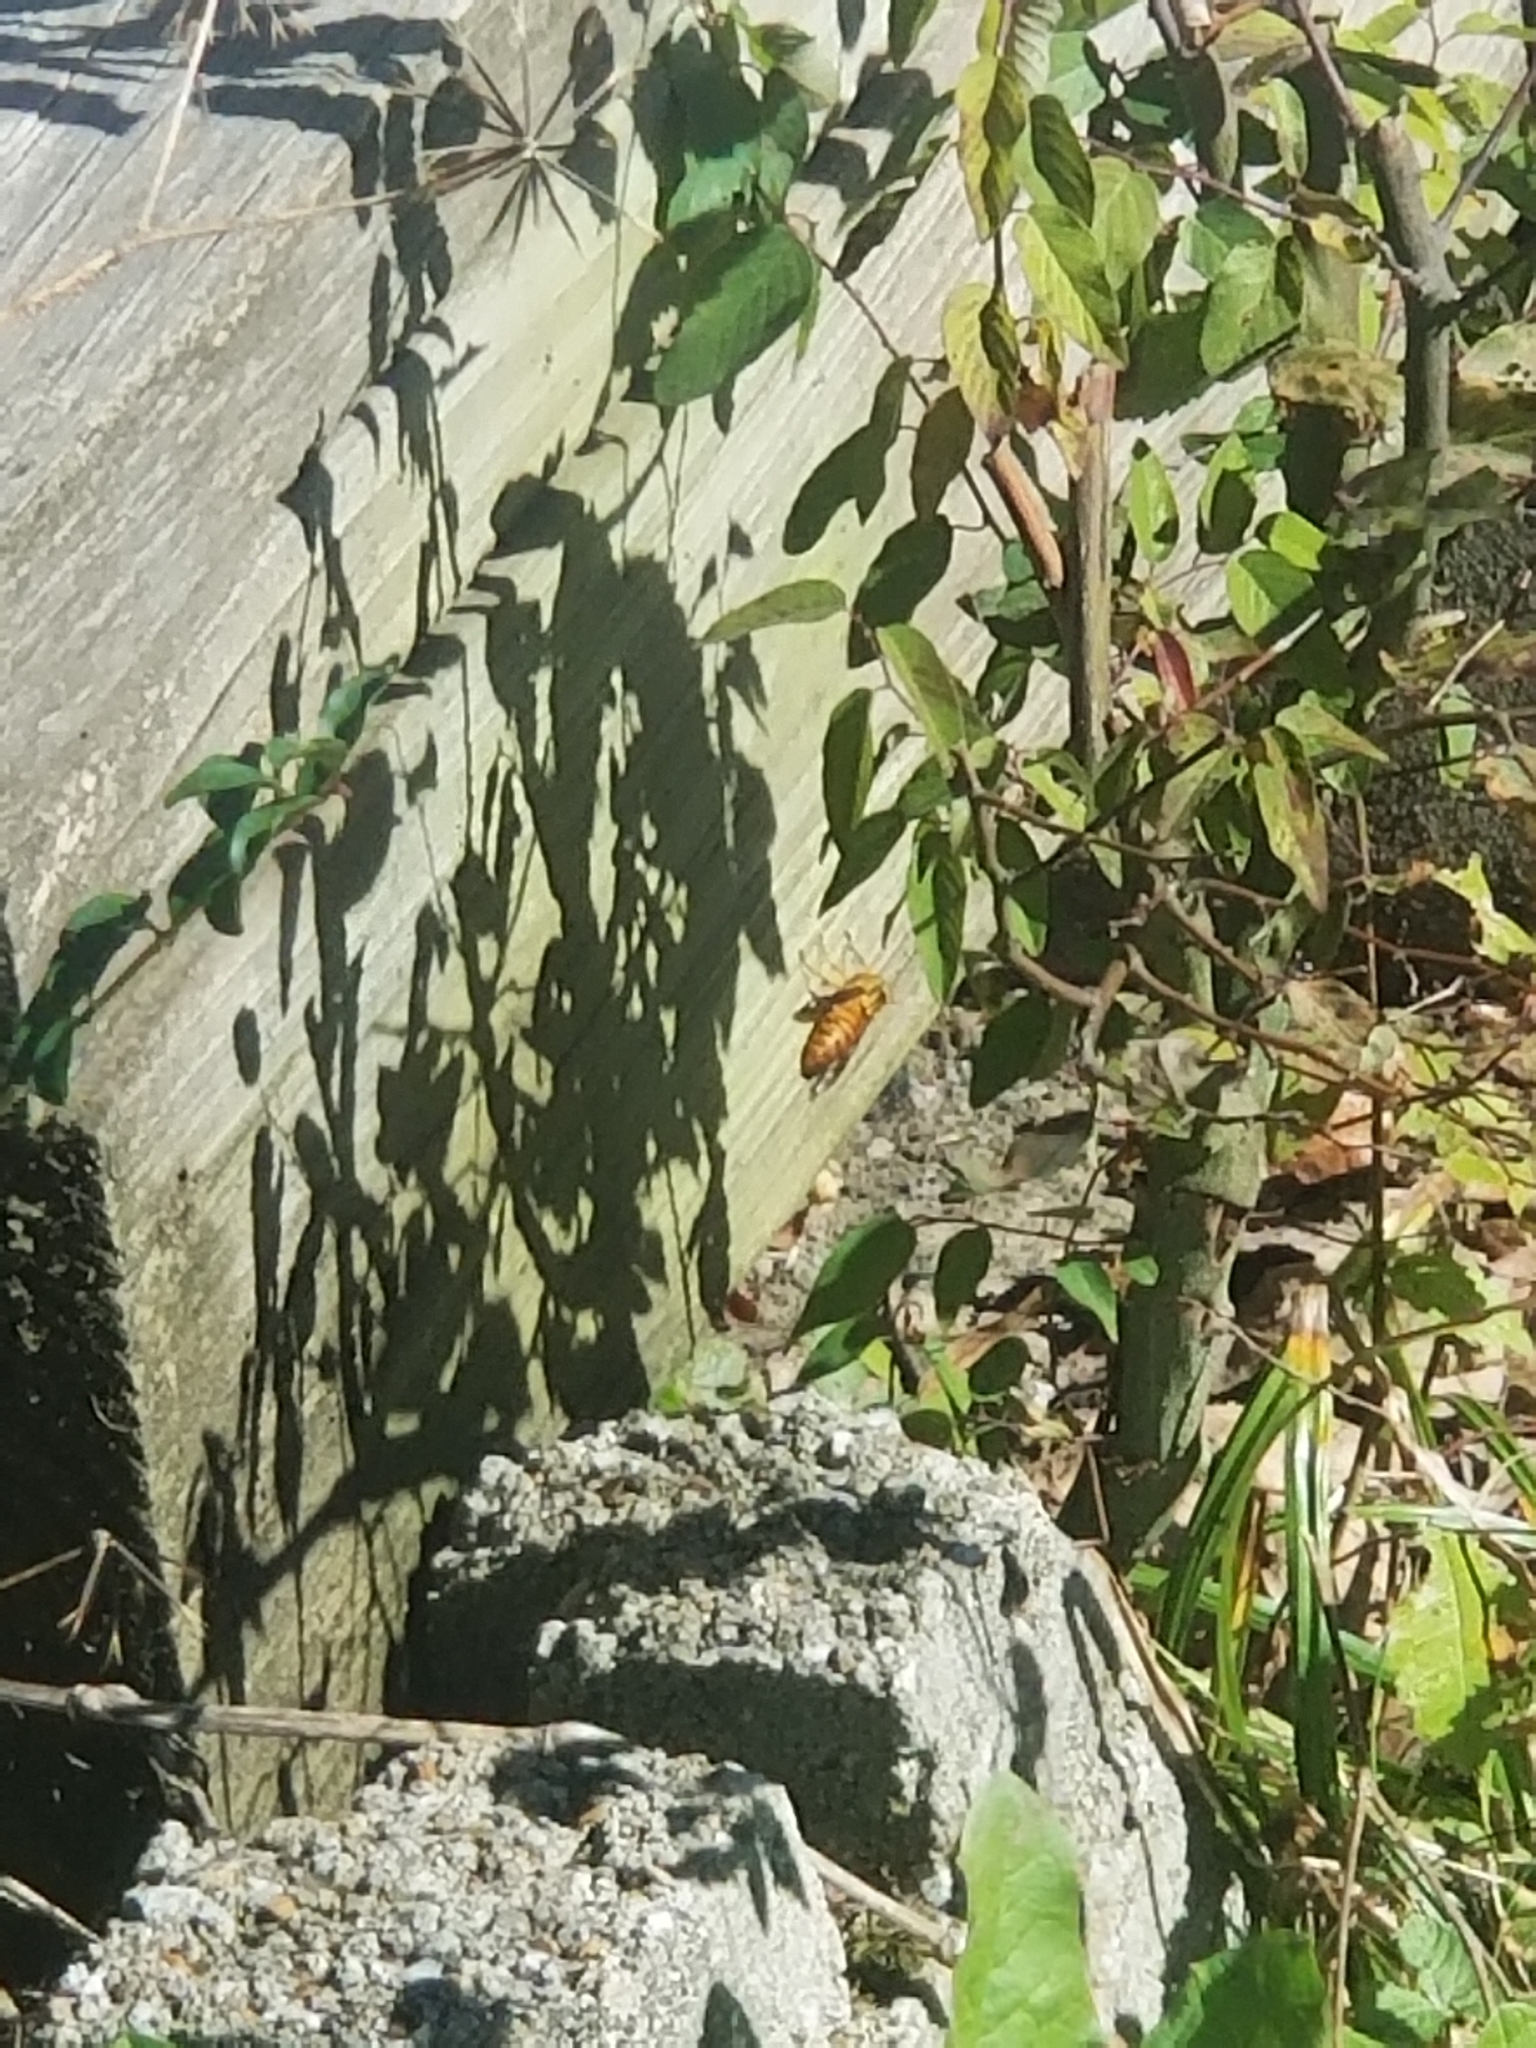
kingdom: Animalia
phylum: Arthropoda
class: Insecta
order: Hymenoptera
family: Vespidae
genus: Vespula
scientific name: Vespula squamosa
